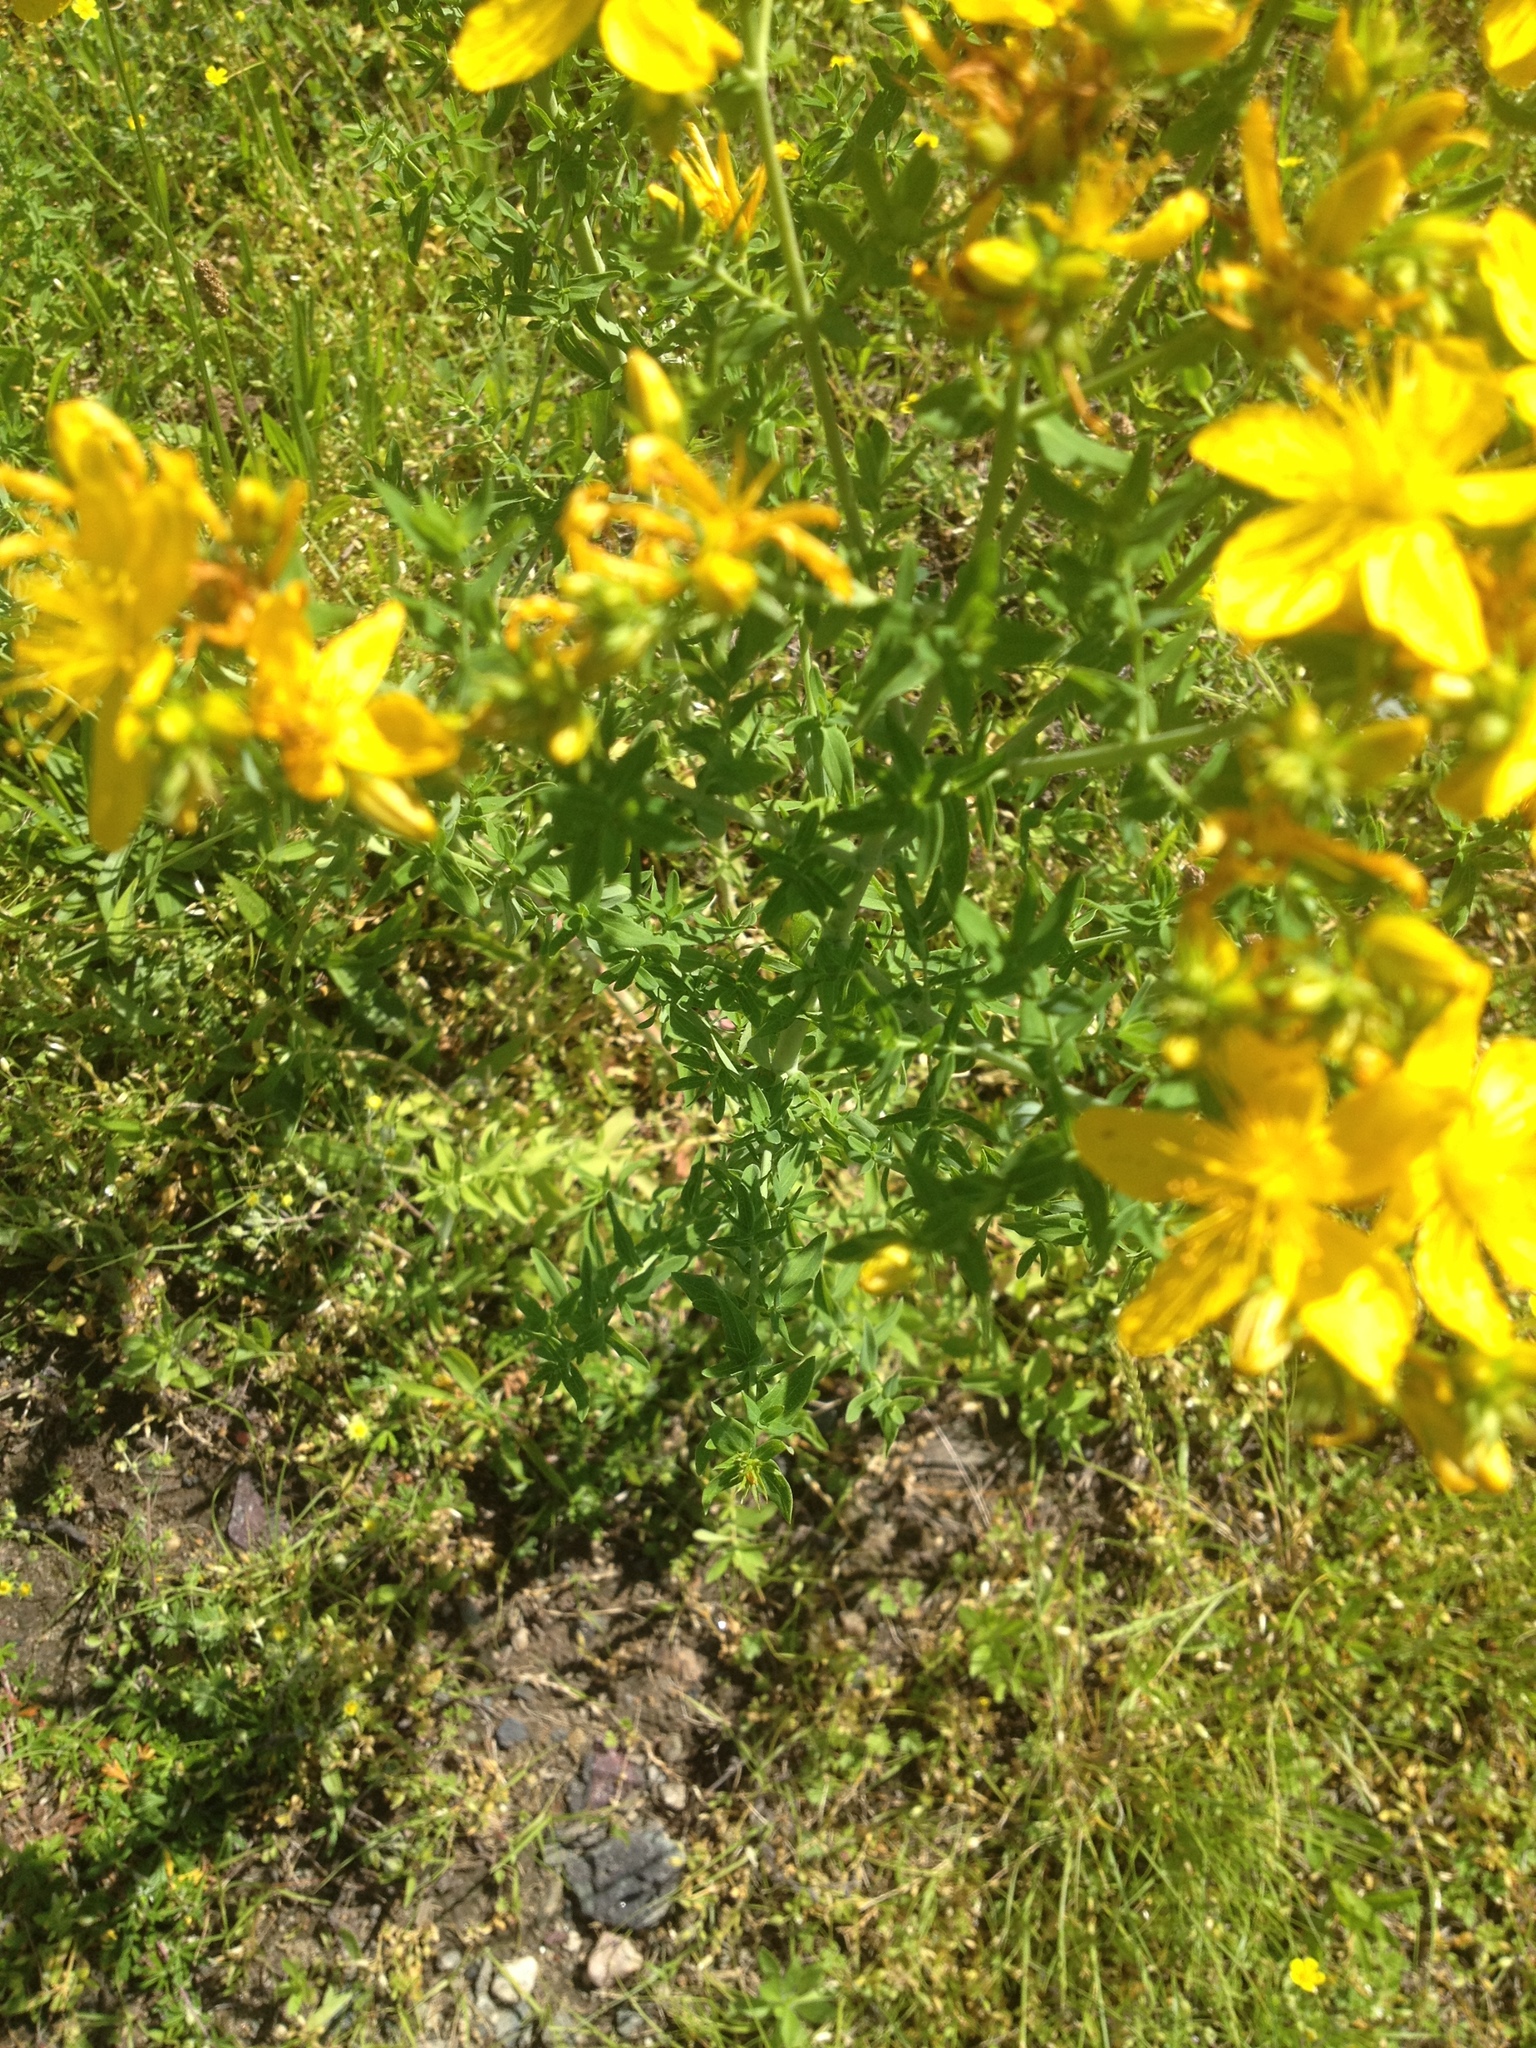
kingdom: Plantae
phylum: Tracheophyta
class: Magnoliopsida
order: Malpighiales
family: Hypericaceae
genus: Hypericum
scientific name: Hypericum perforatum
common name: Common st. johnswort
